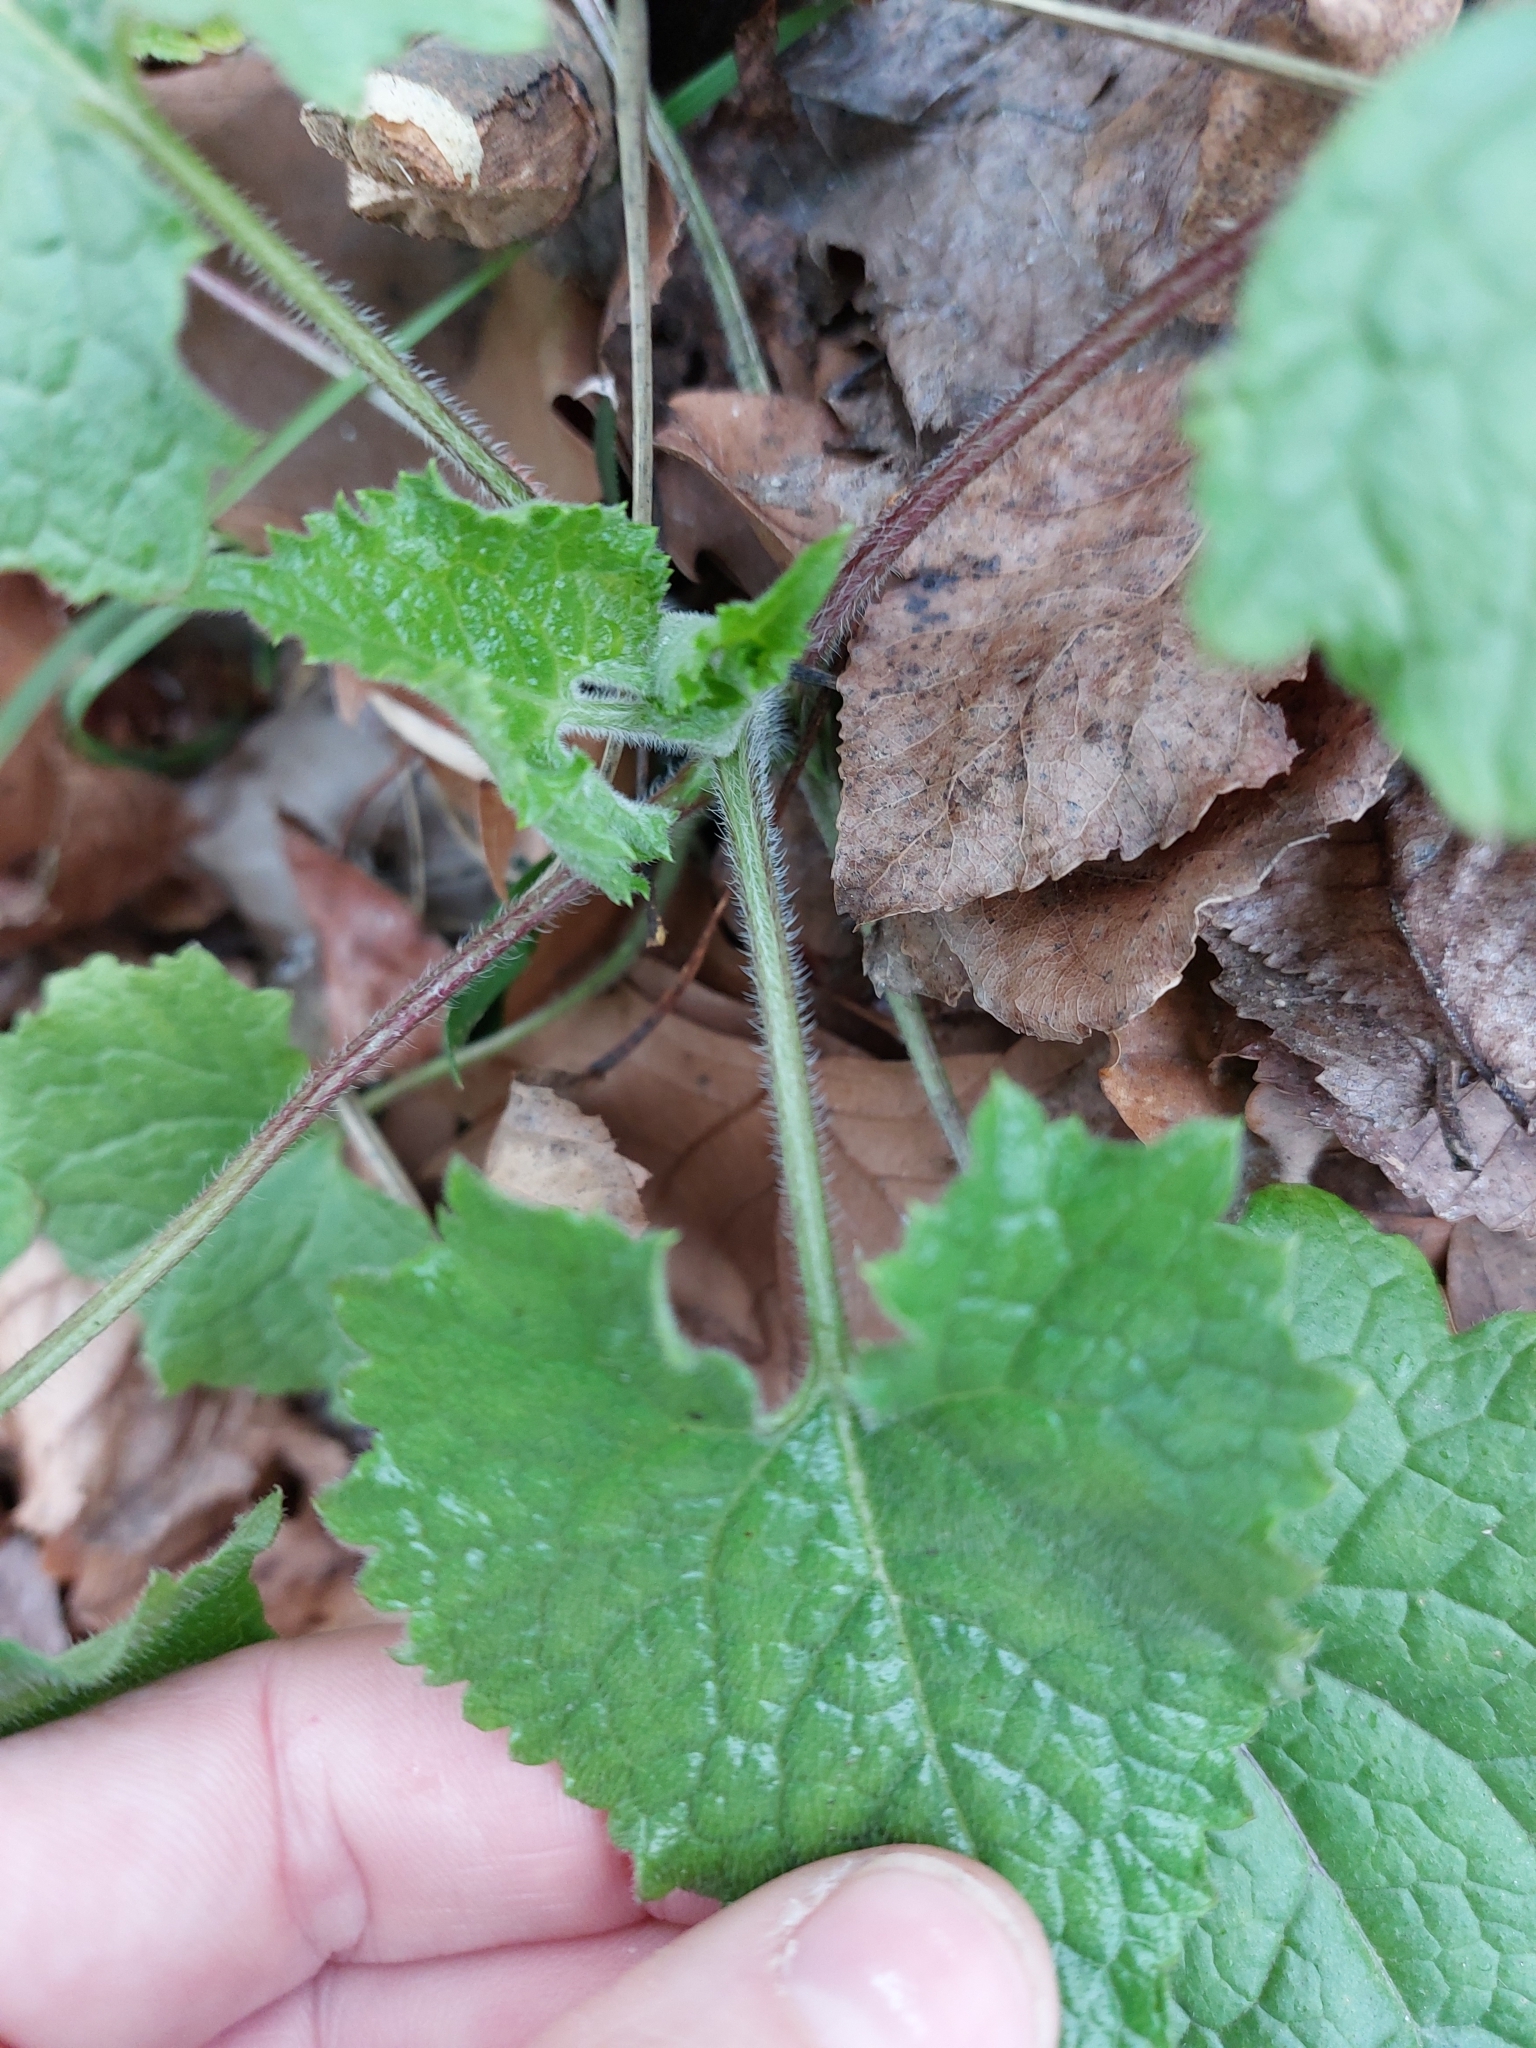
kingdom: Plantae
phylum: Tracheophyta
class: Magnoliopsida
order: Brassicales
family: Brassicaceae
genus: Lunaria
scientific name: Lunaria annua
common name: Honesty
